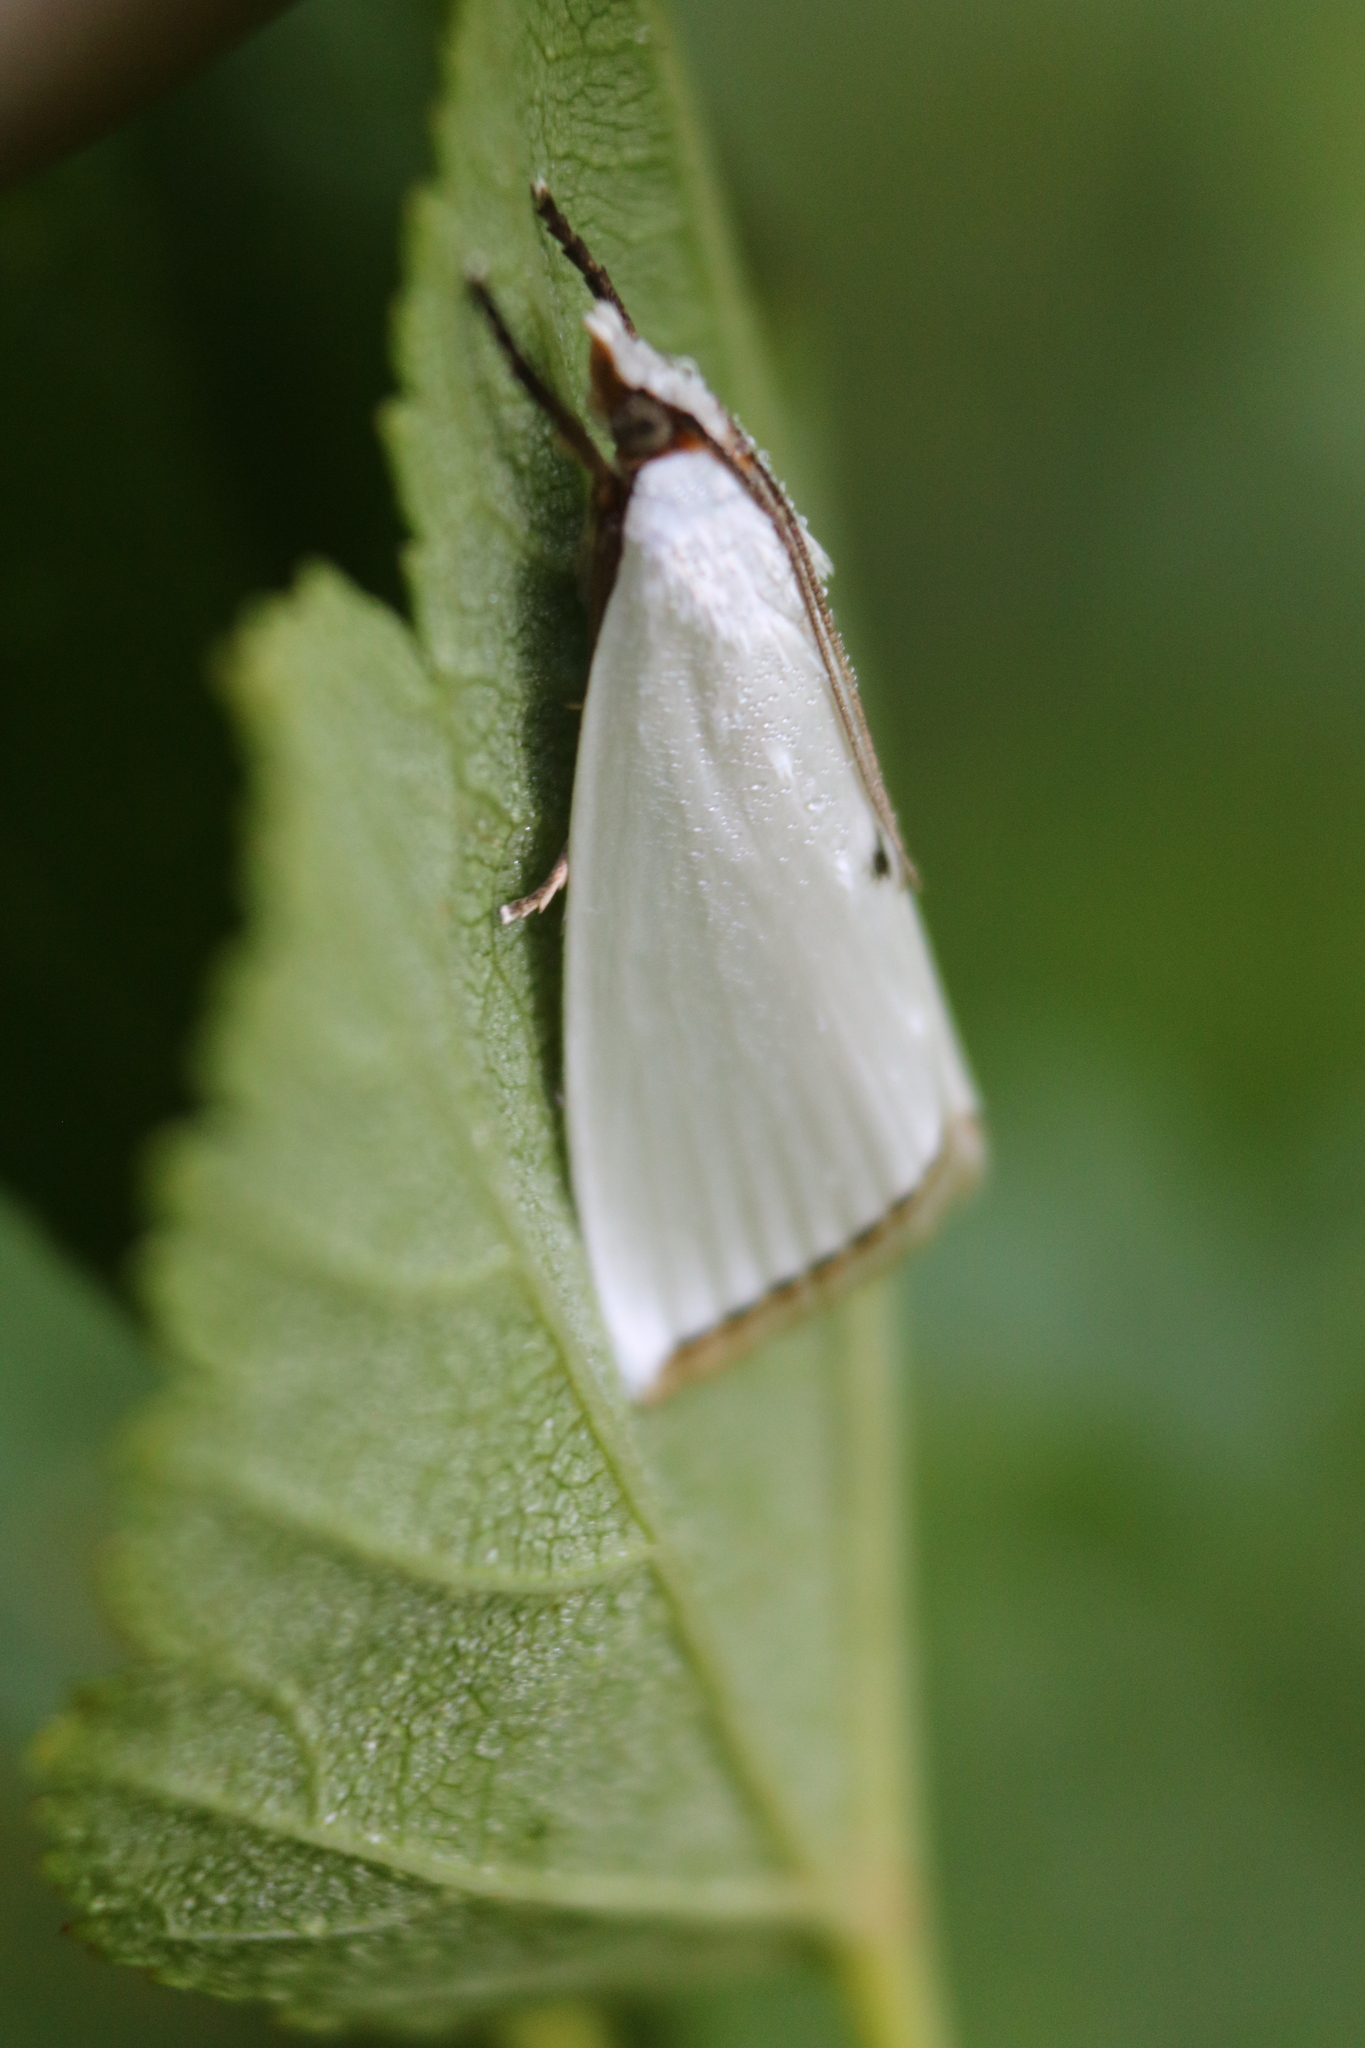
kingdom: Animalia
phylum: Arthropoda
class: Insecta
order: Lepidoptera
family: Crambidae
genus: Argyria
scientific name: Argyria nivalis
